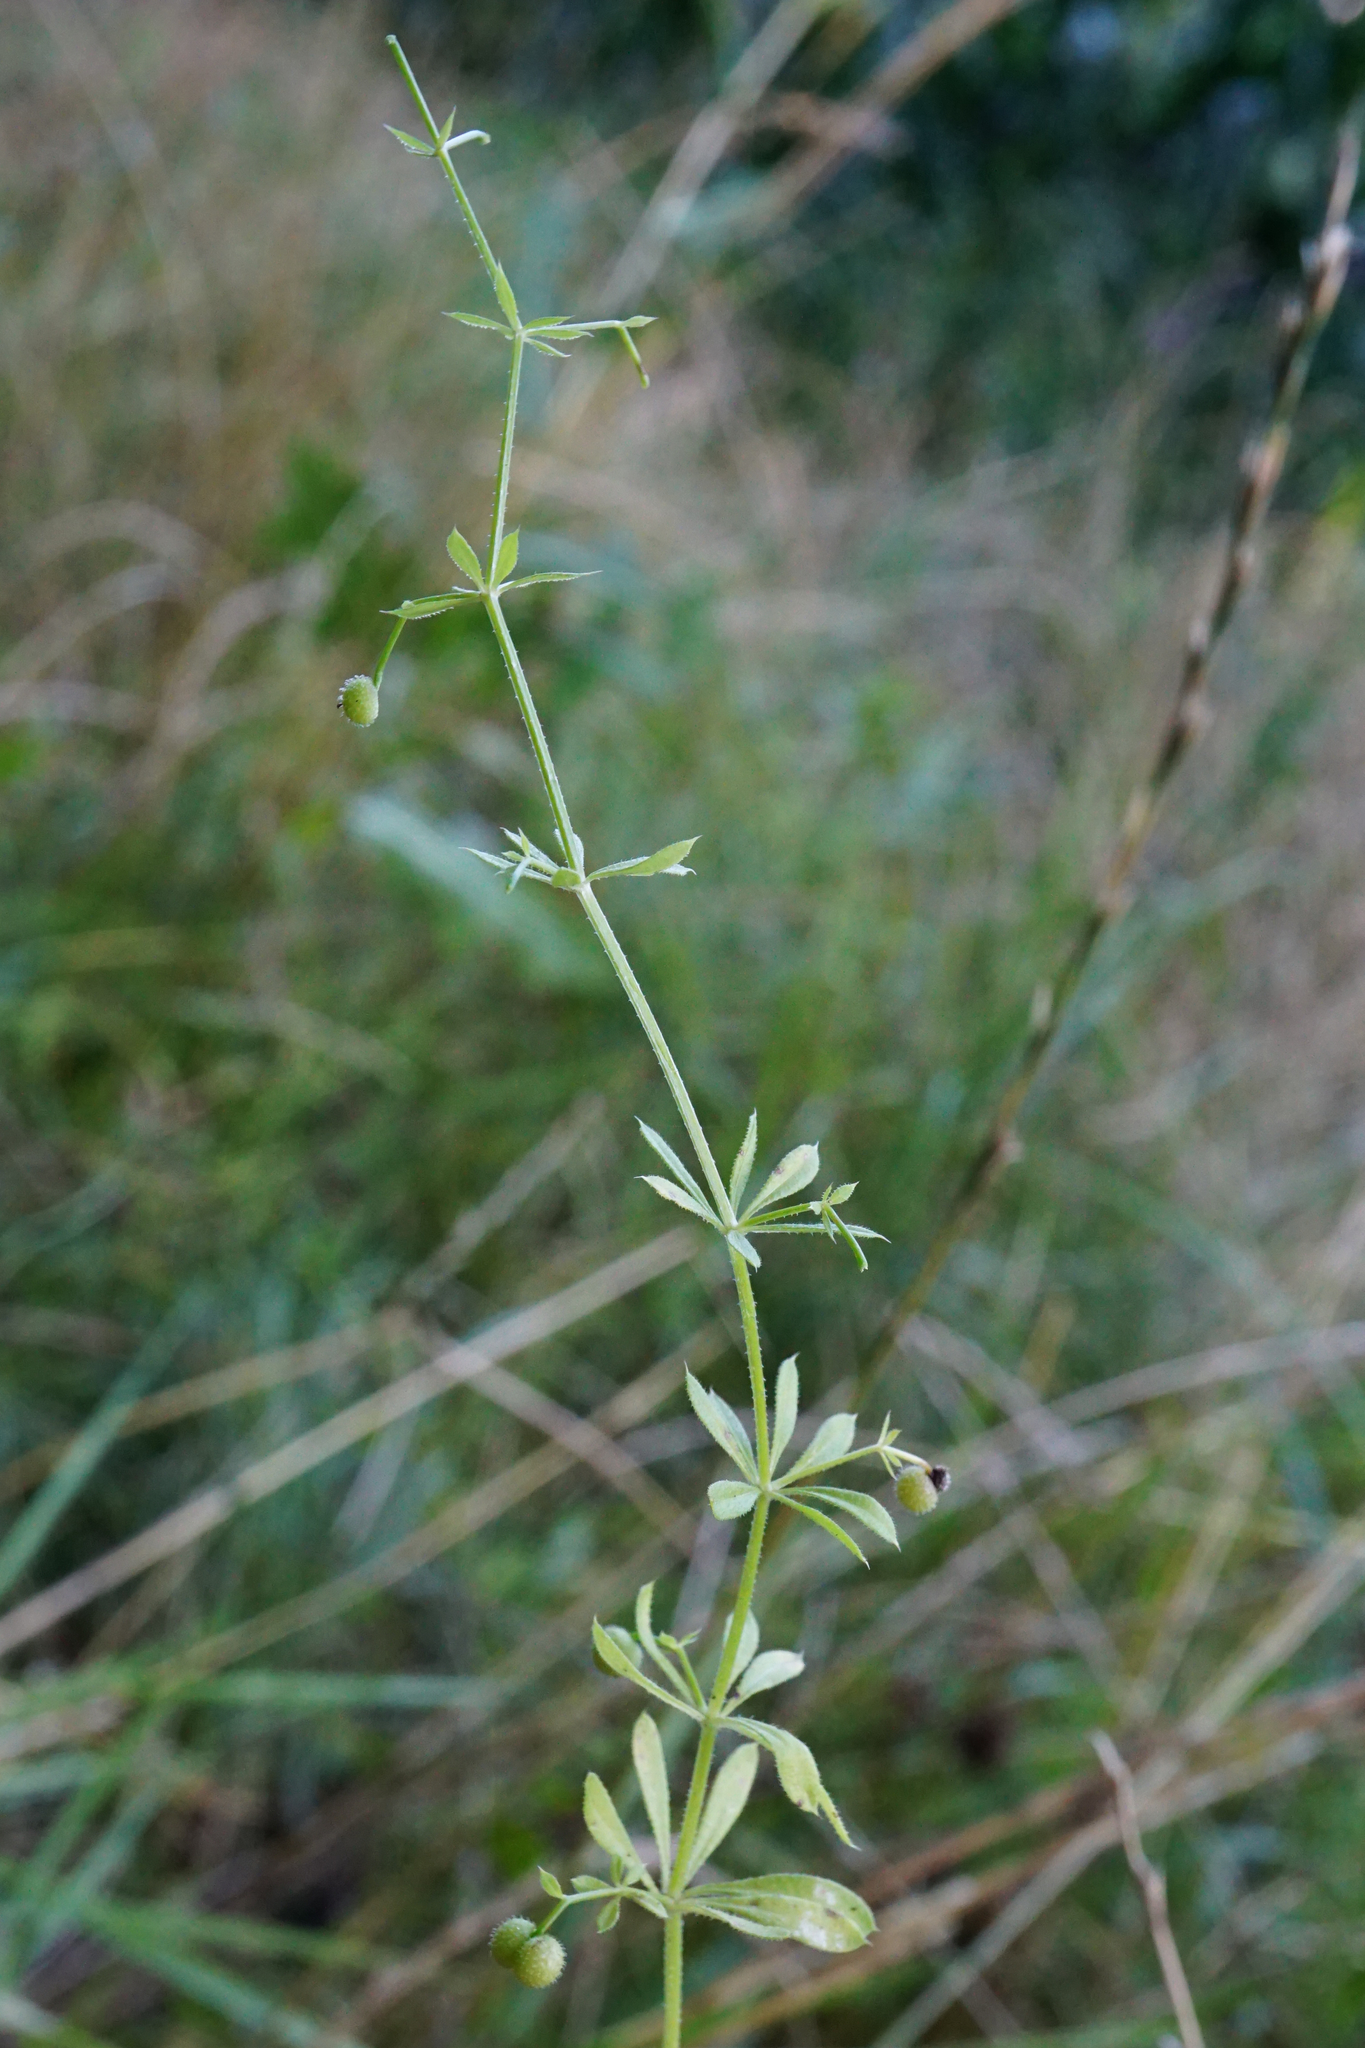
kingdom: Plantae
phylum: Tracheophyta
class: Magnoliopsida
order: Gentianales
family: Rubiaceae
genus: Galium
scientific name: Galium aparine
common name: Cleavers
